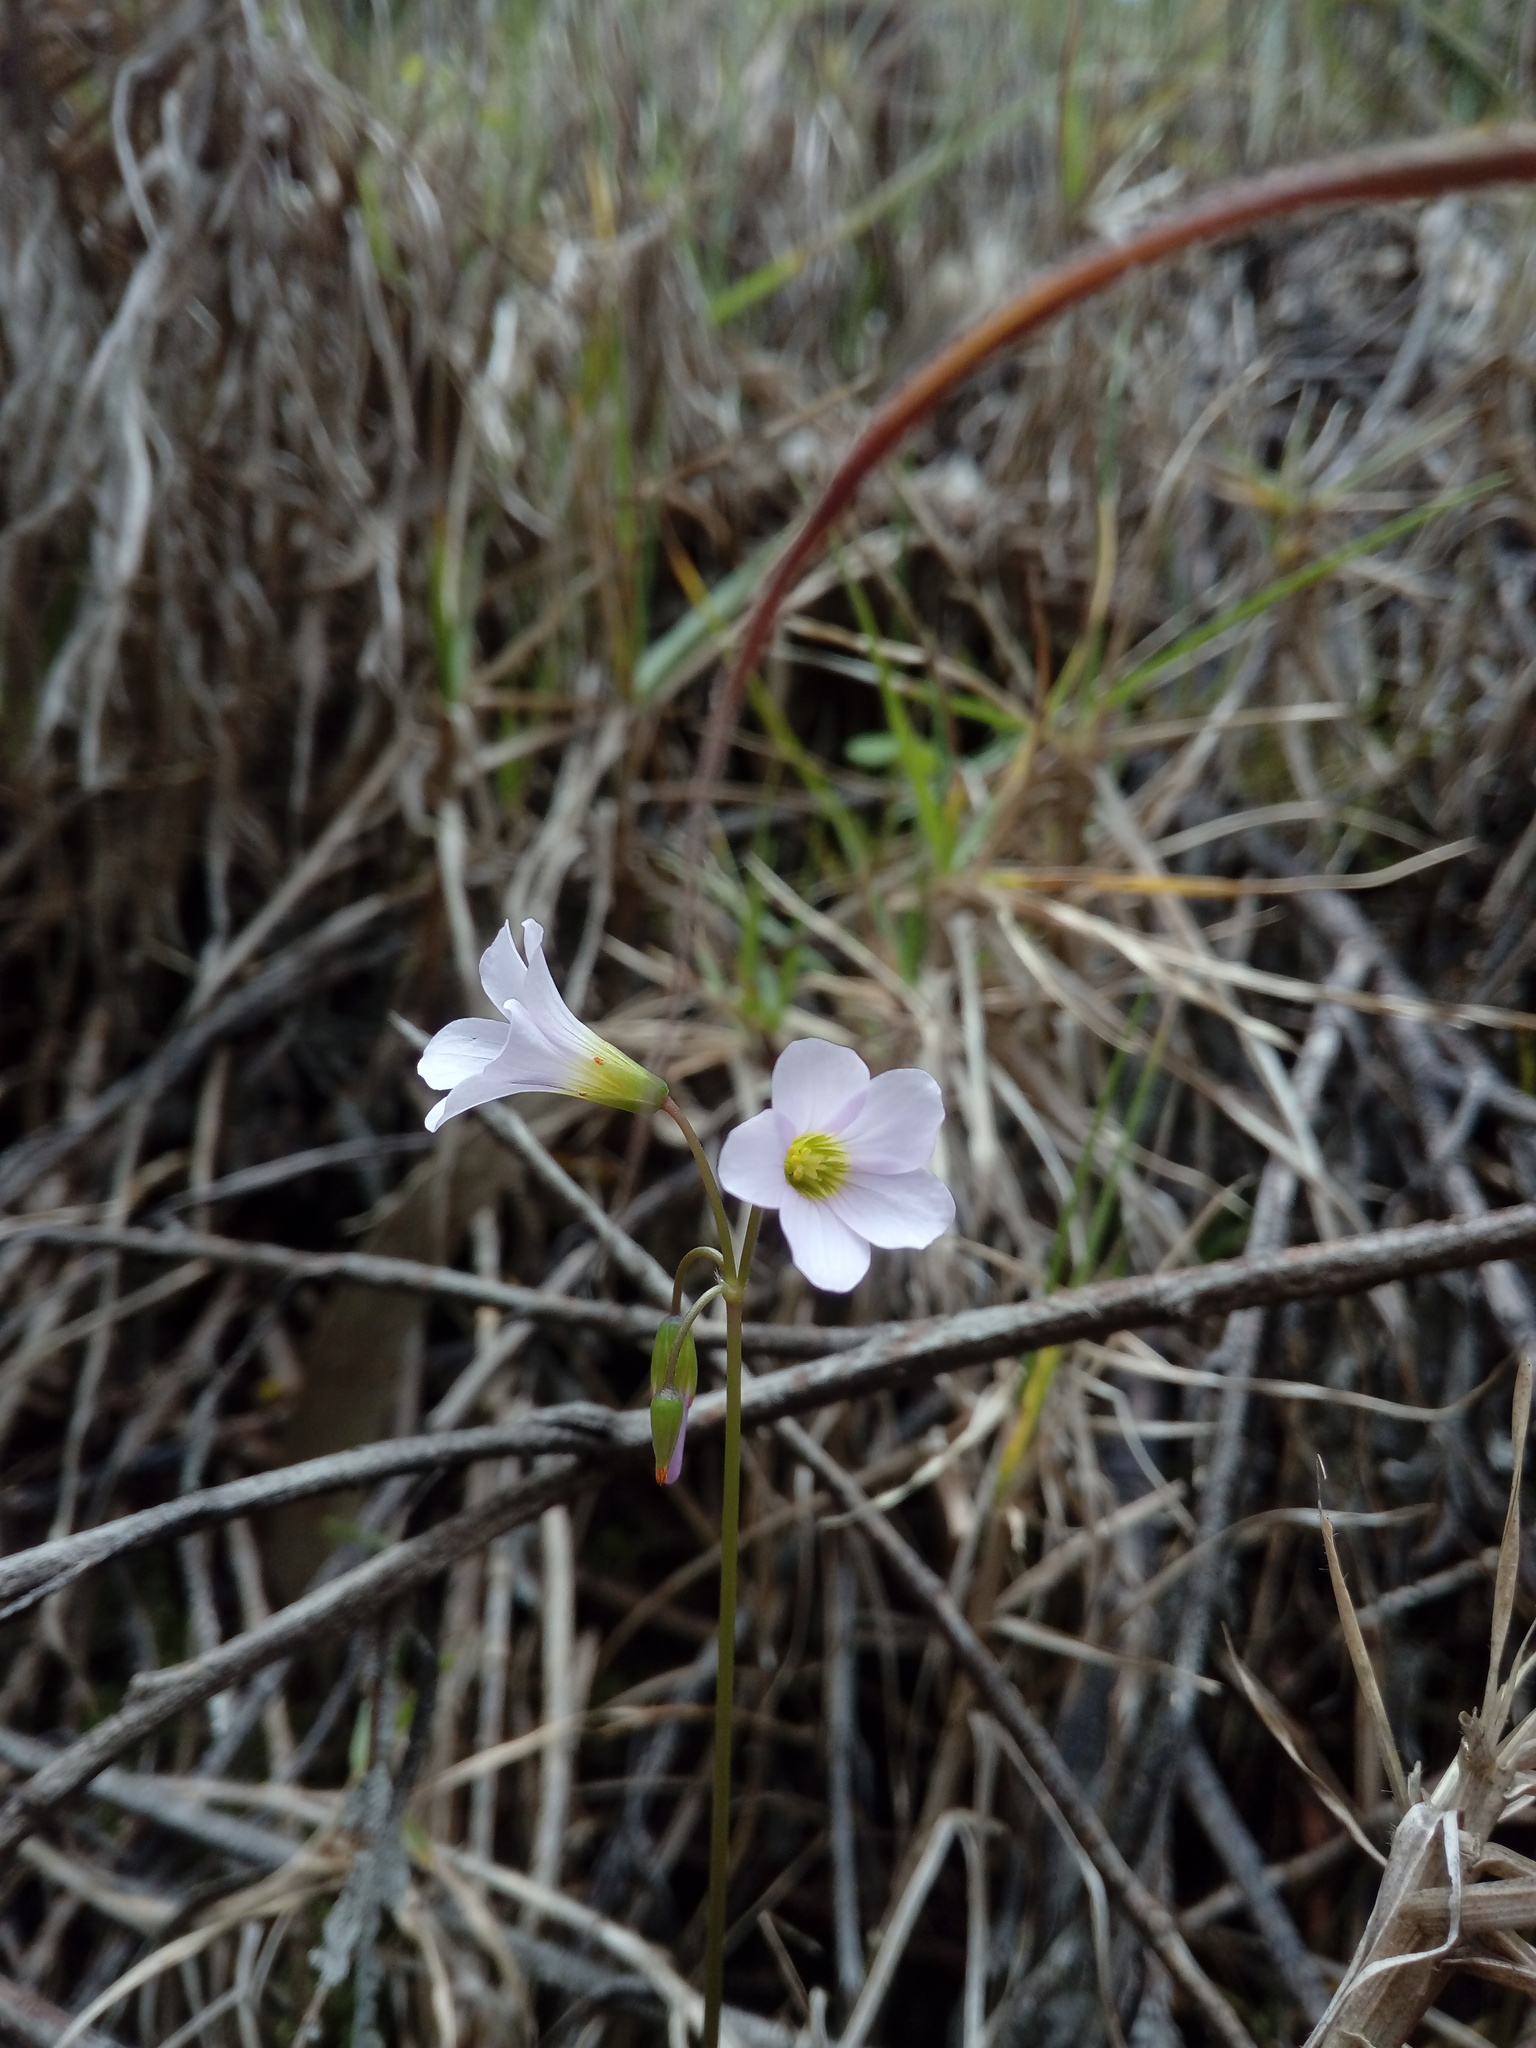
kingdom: Plantae
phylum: Tracheophyta
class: Magnoliopsida
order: Oxalidales
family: Oxalidaceae
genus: Oxalis
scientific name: Oxalis cuatrecasasii
